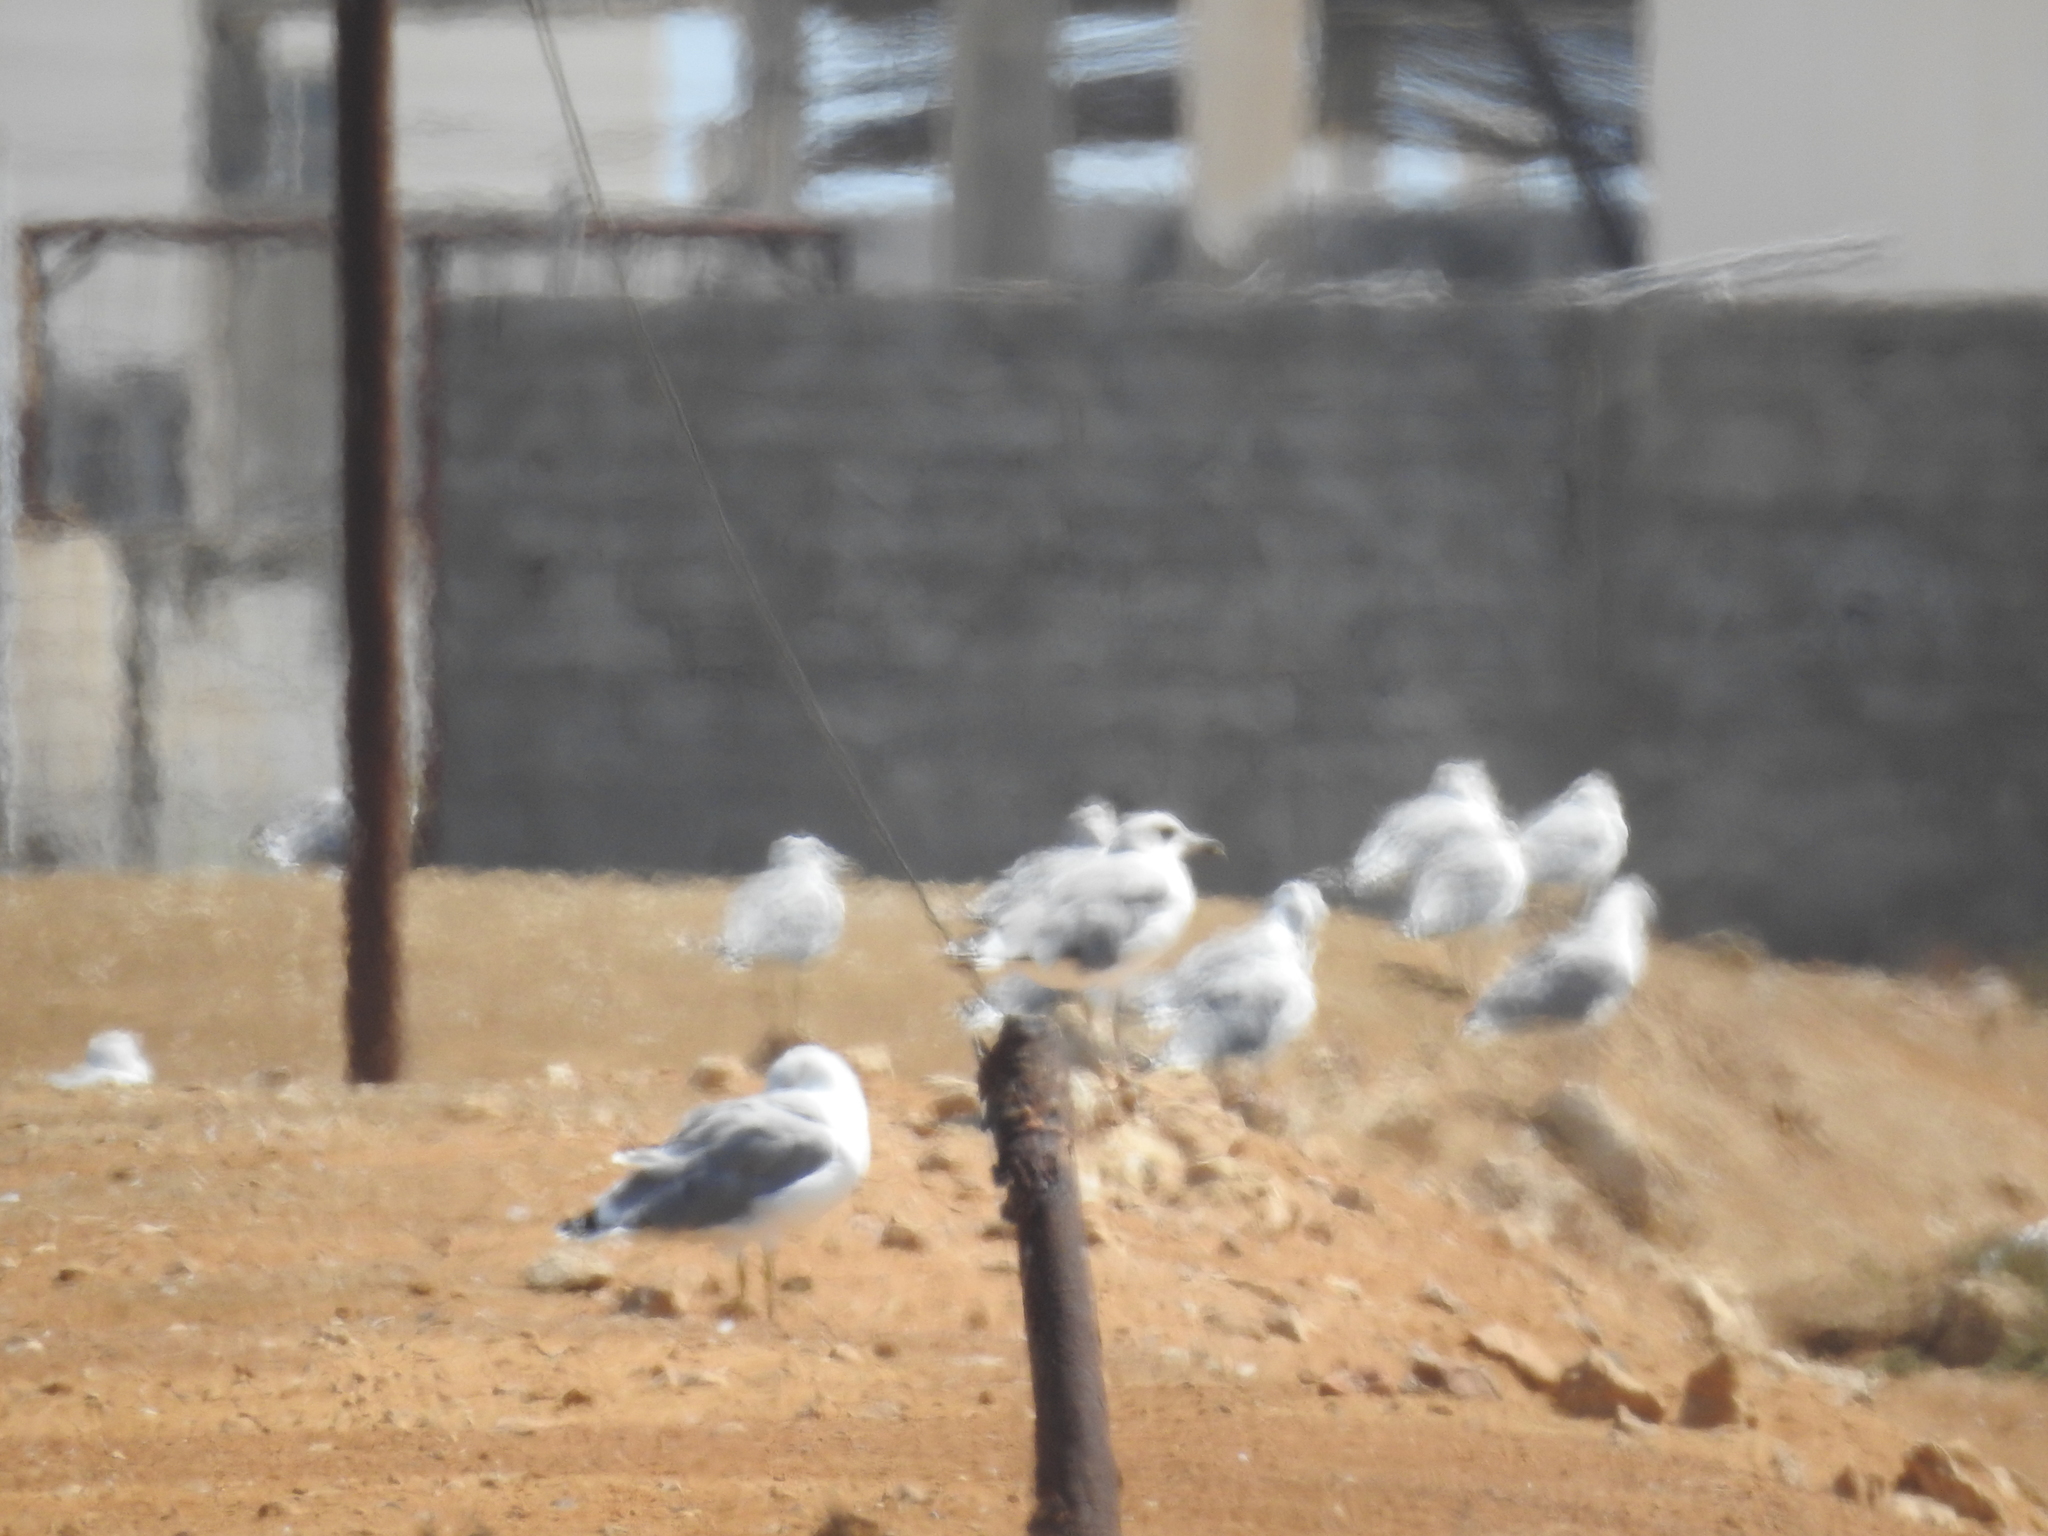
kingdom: Animalia
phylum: Chordata
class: Aves
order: Charadriiformes
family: Laridae
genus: Larus
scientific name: Larus michahellis
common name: Yellow-legged gull
